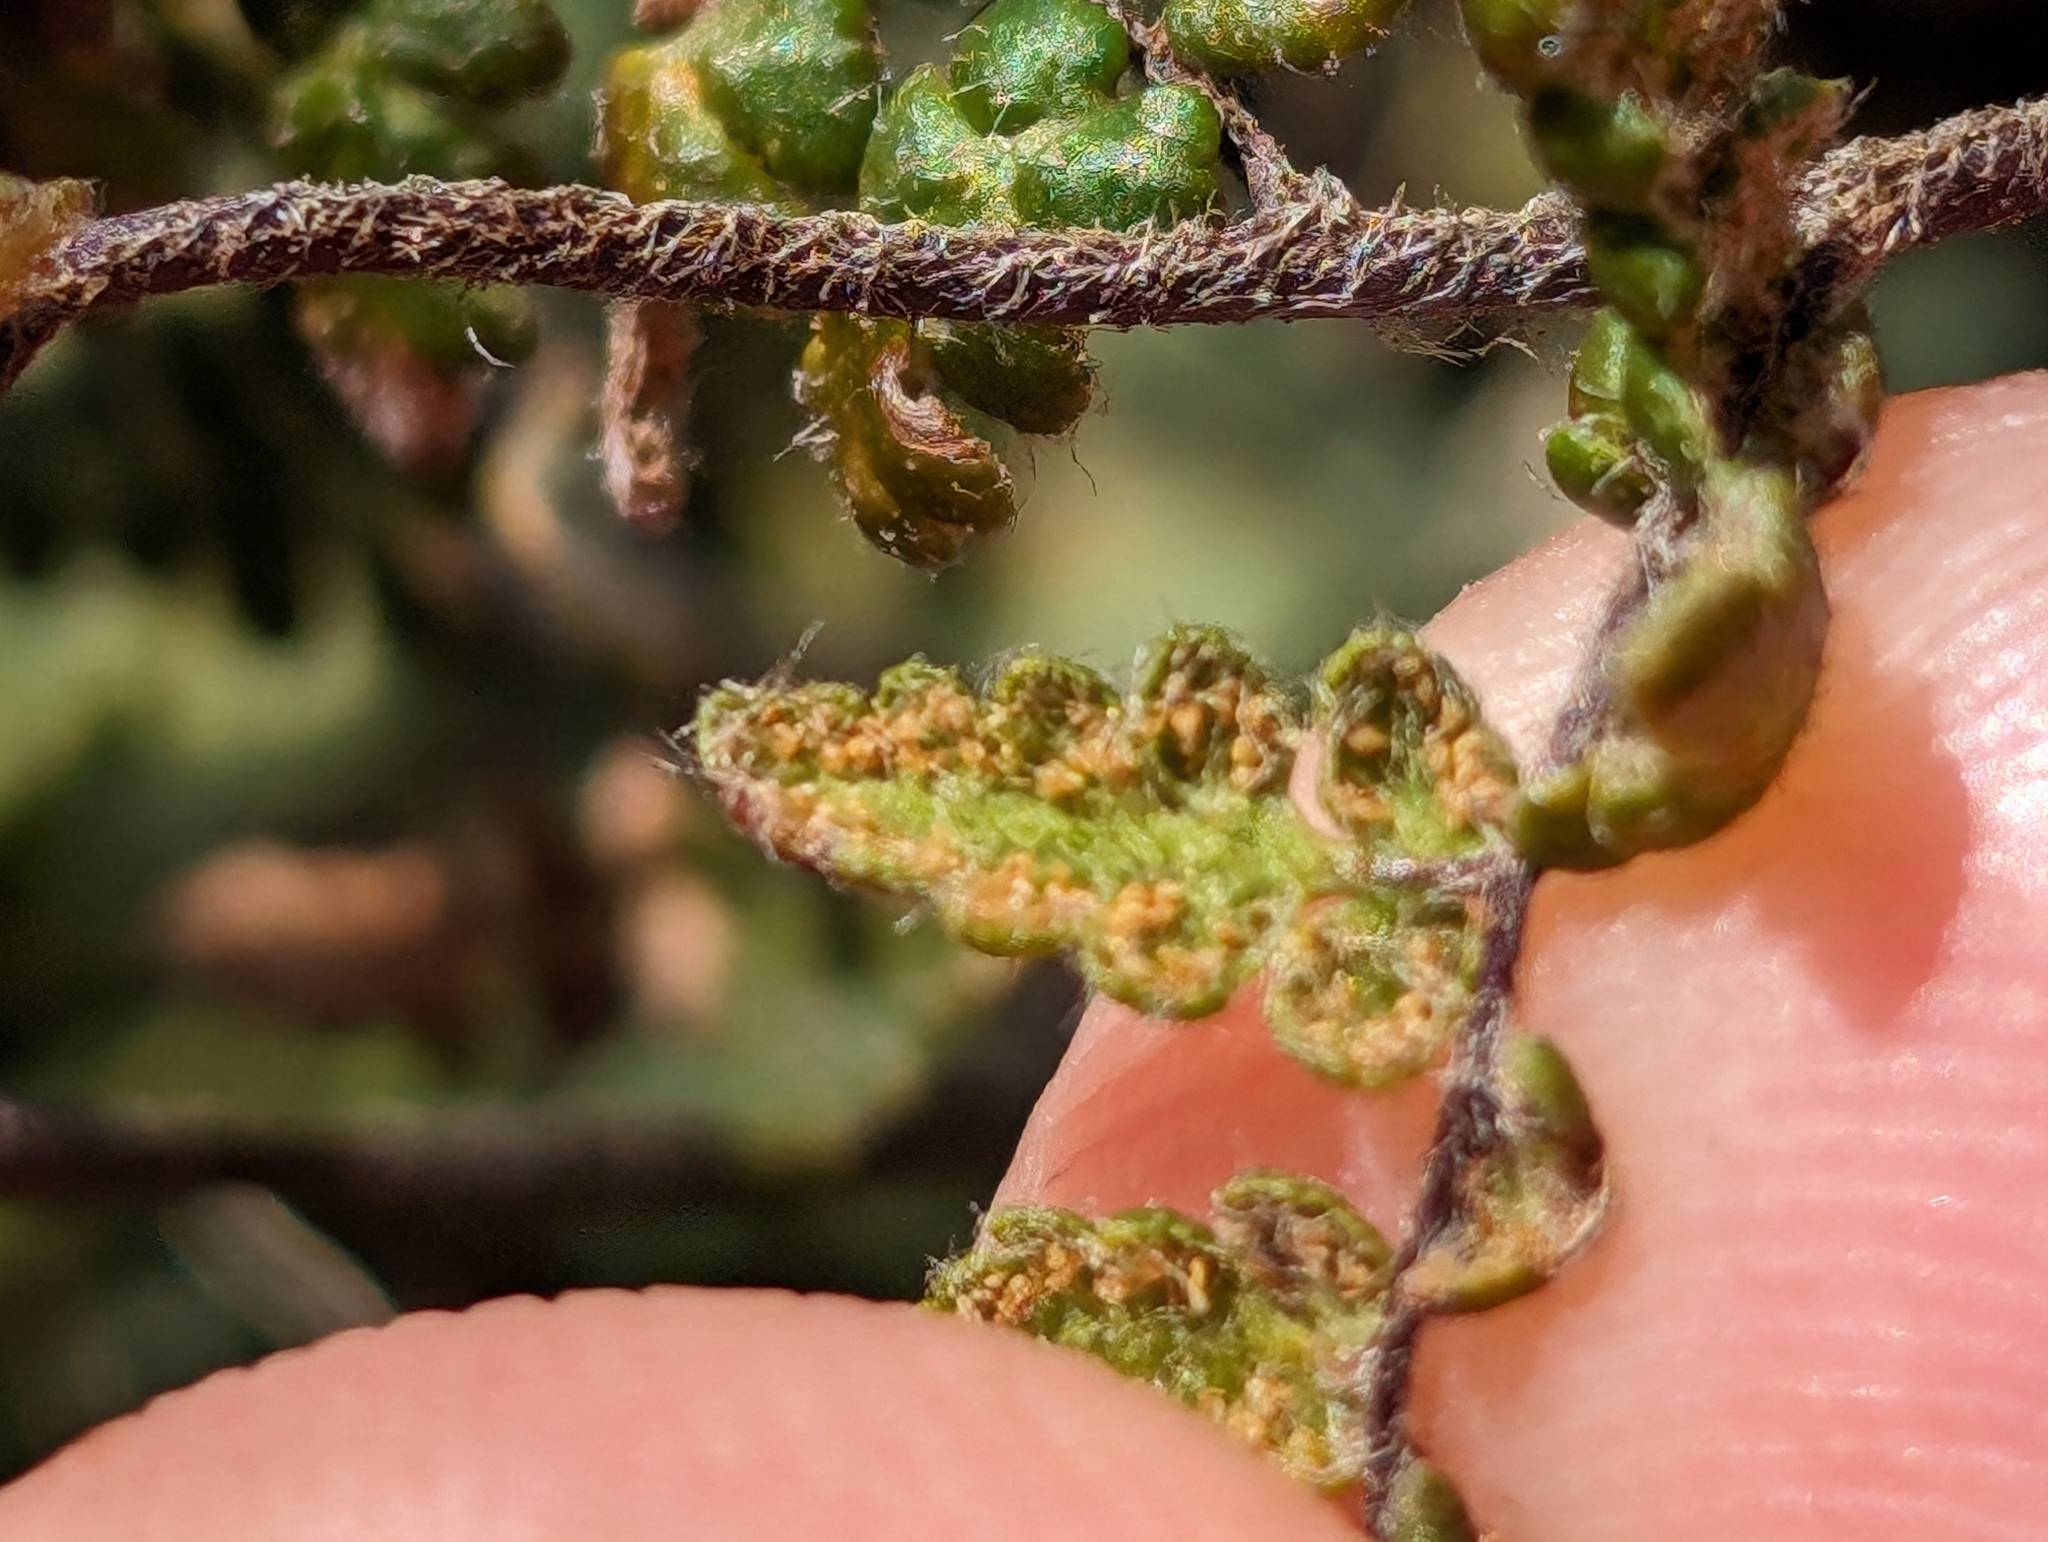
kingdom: Plantae
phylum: Tracheophyta
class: Polypodiopsida
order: Polypodiales
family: Pteridaceae
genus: Myriopteris
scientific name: Myriopteris lanosa
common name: Hairy lip fern
